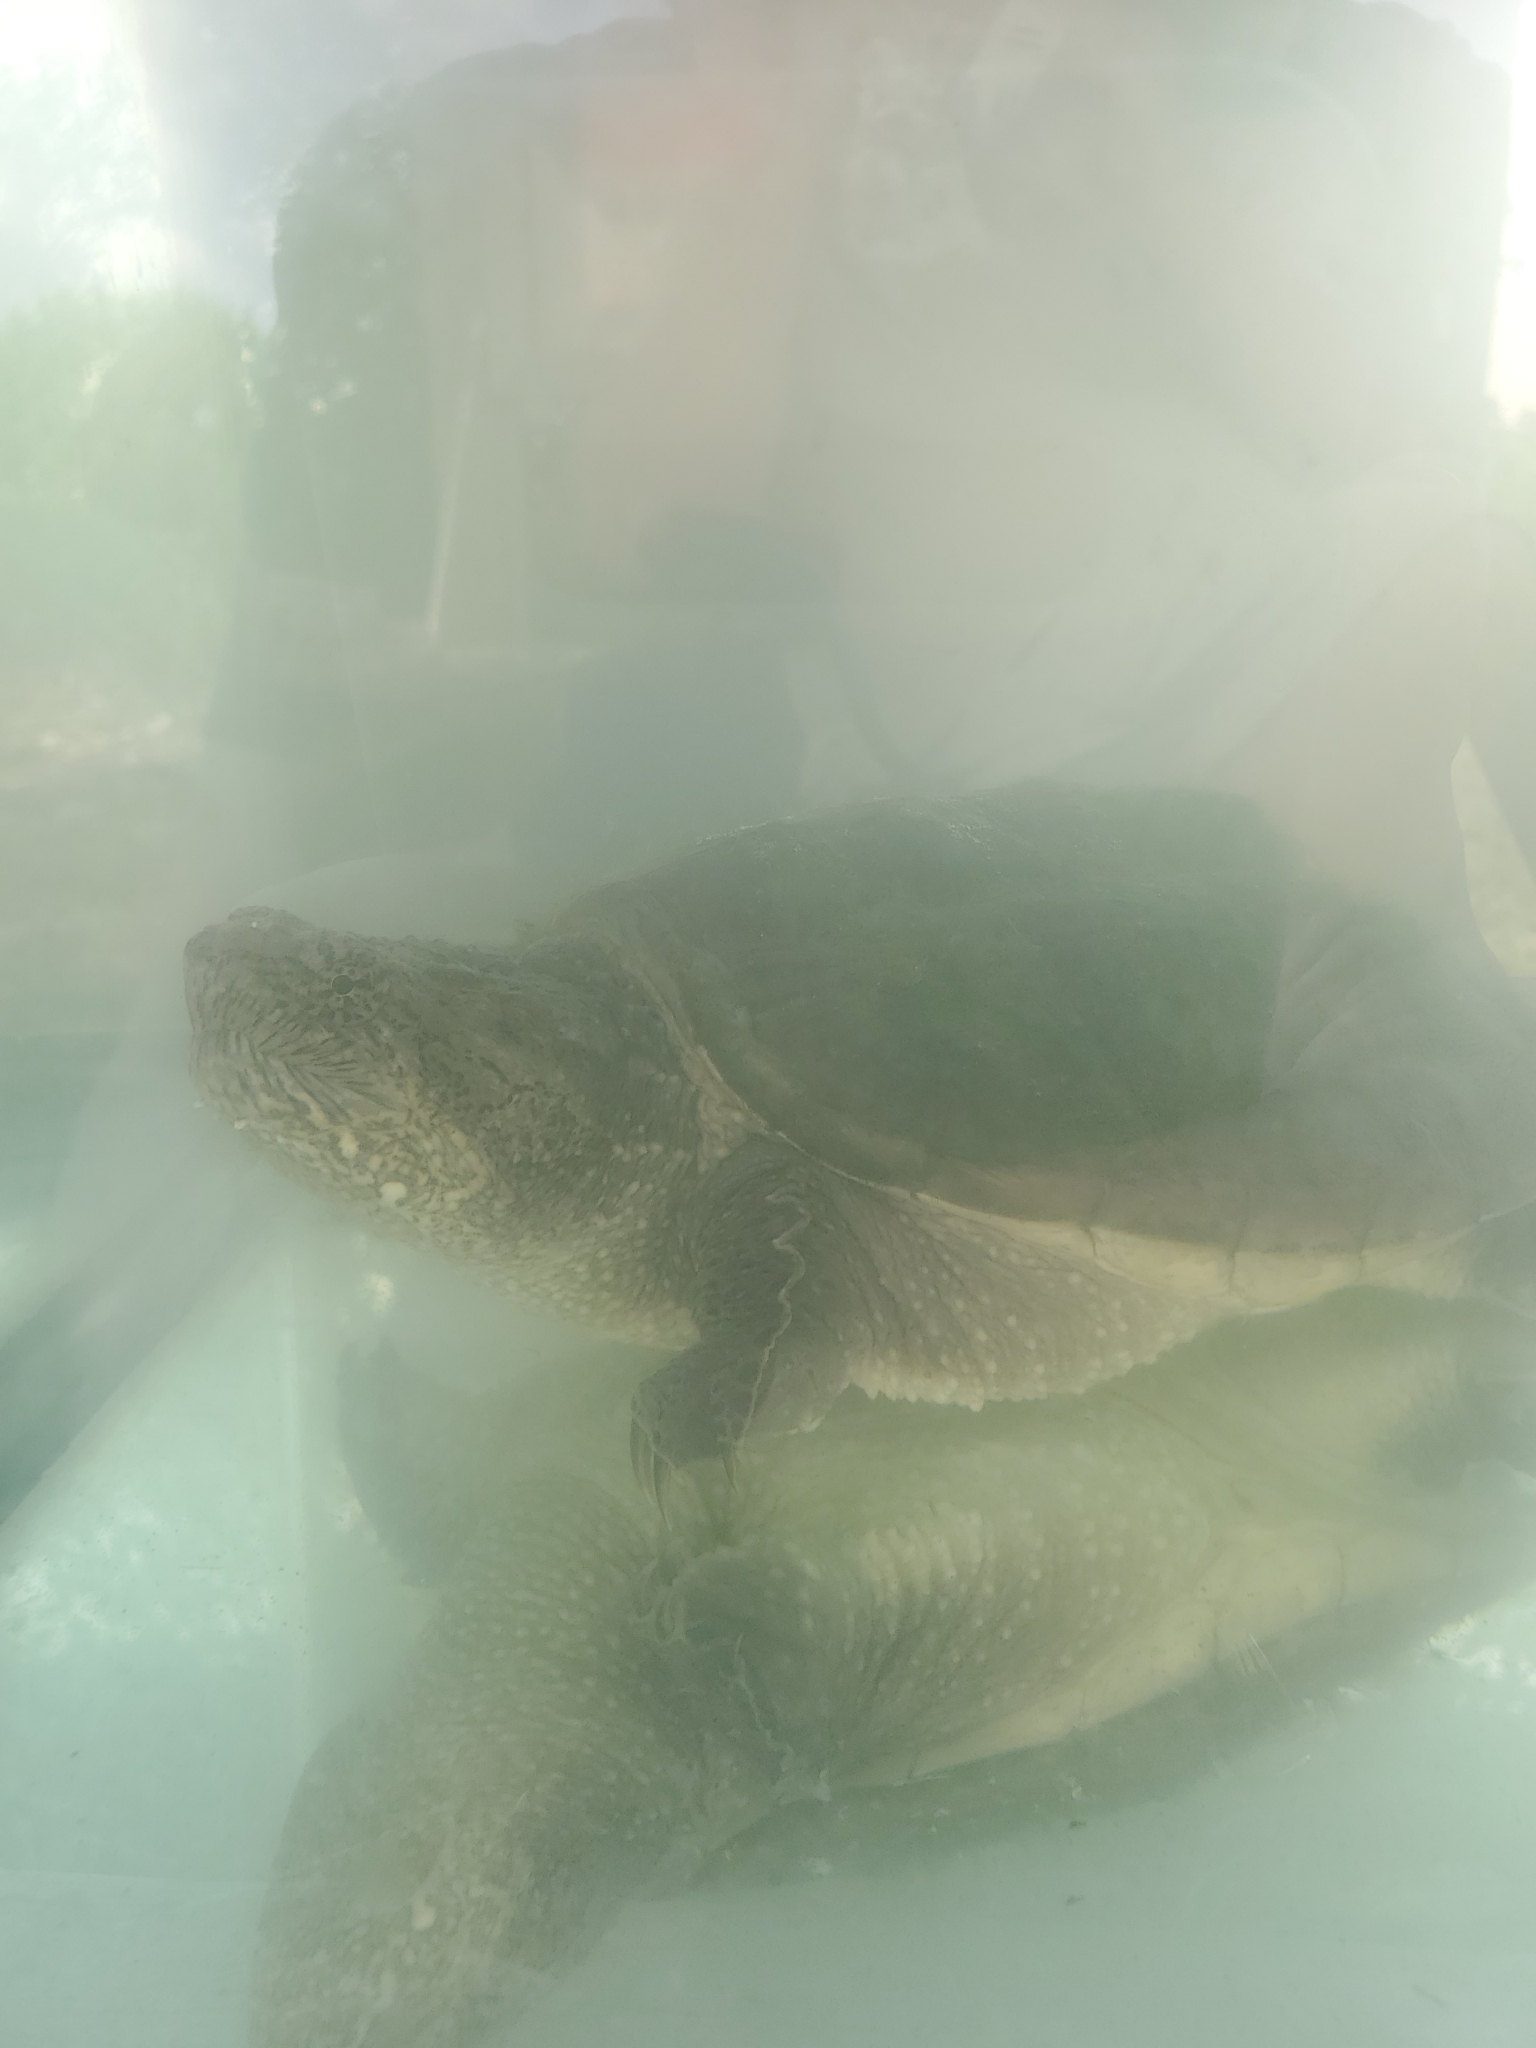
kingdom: Animalia
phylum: Chordata
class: Testudines
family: Chelydridae
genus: Chelydra
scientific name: Chelydra serpentina
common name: Common snapping turtle
